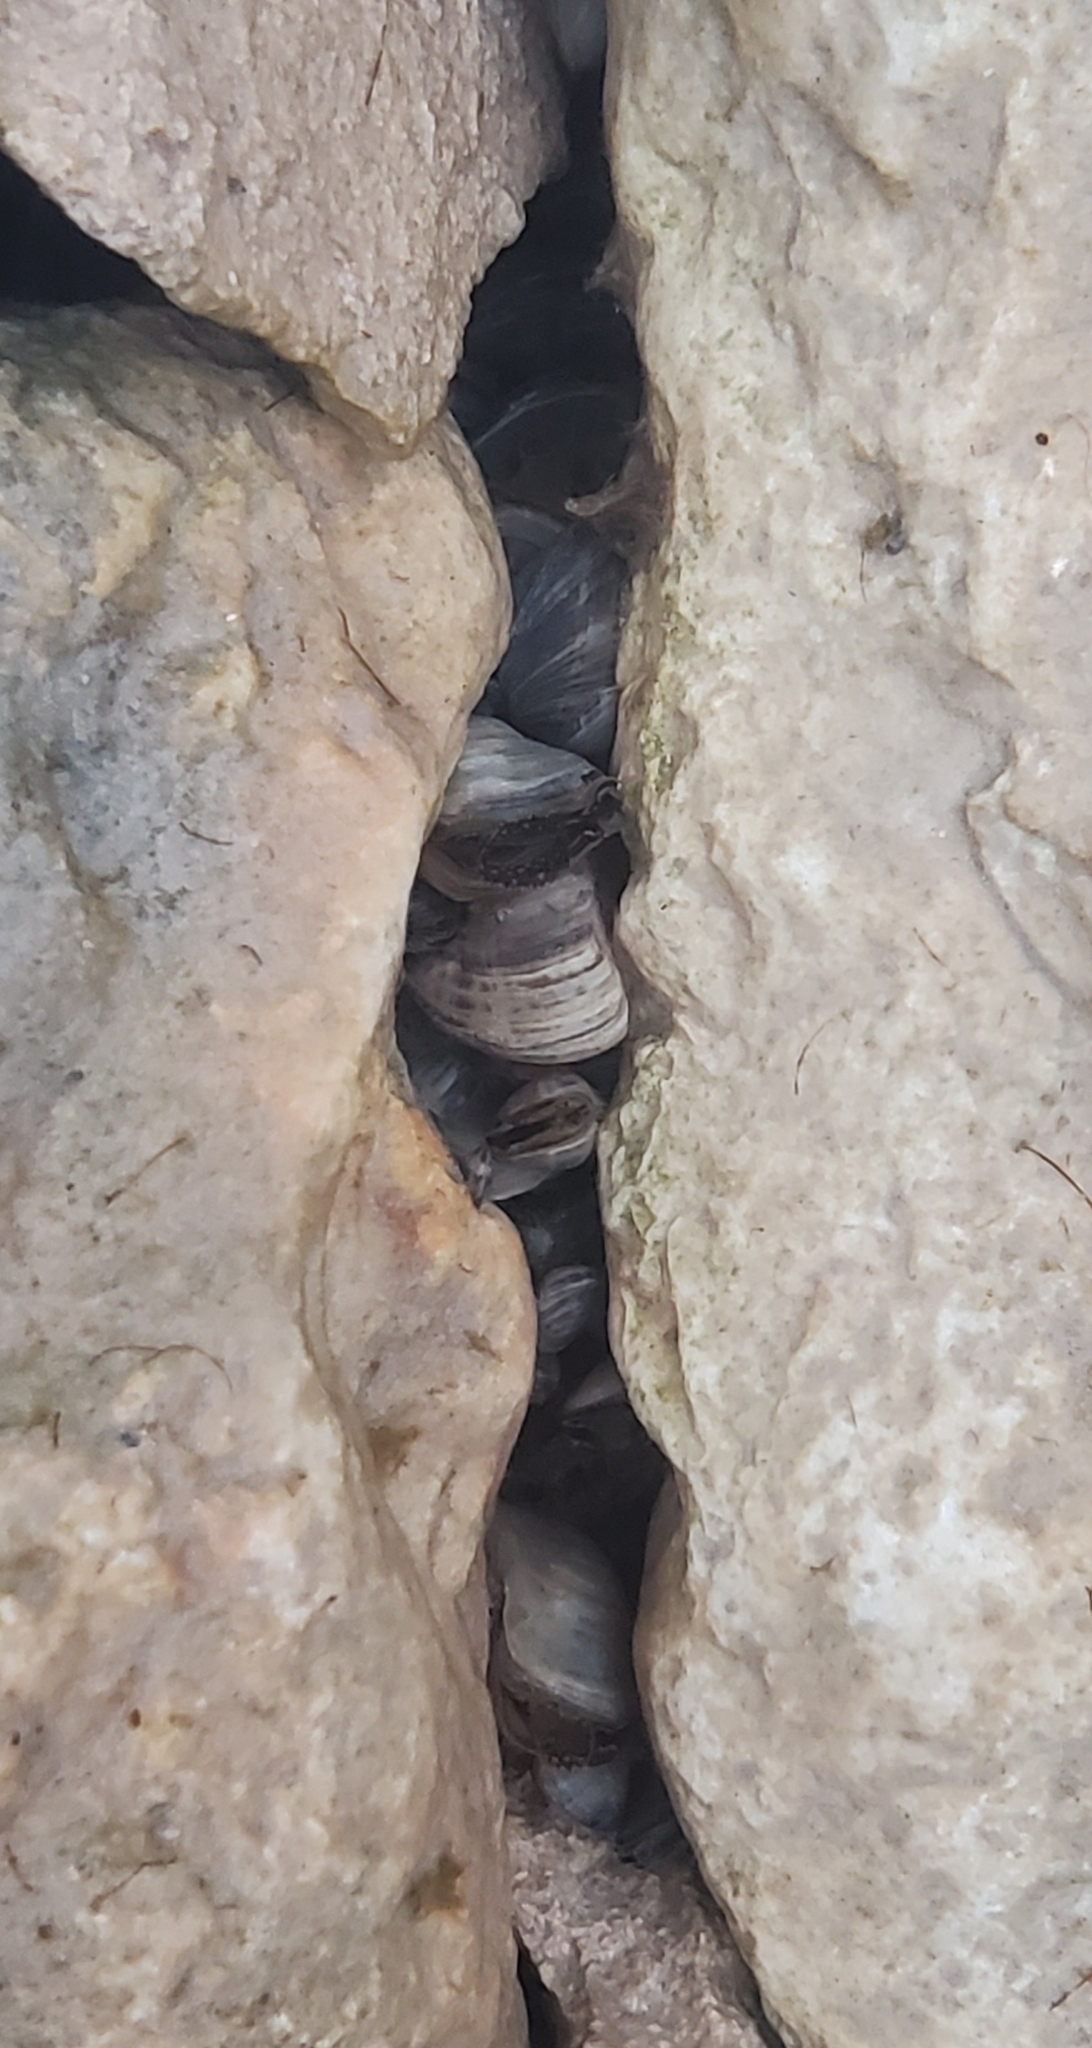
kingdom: Animalia
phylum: Mollusca
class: Bivalvia
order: Myida
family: Dreissenidae
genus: Dreissena
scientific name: Dreissena polymorpha
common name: Zebra mussel
